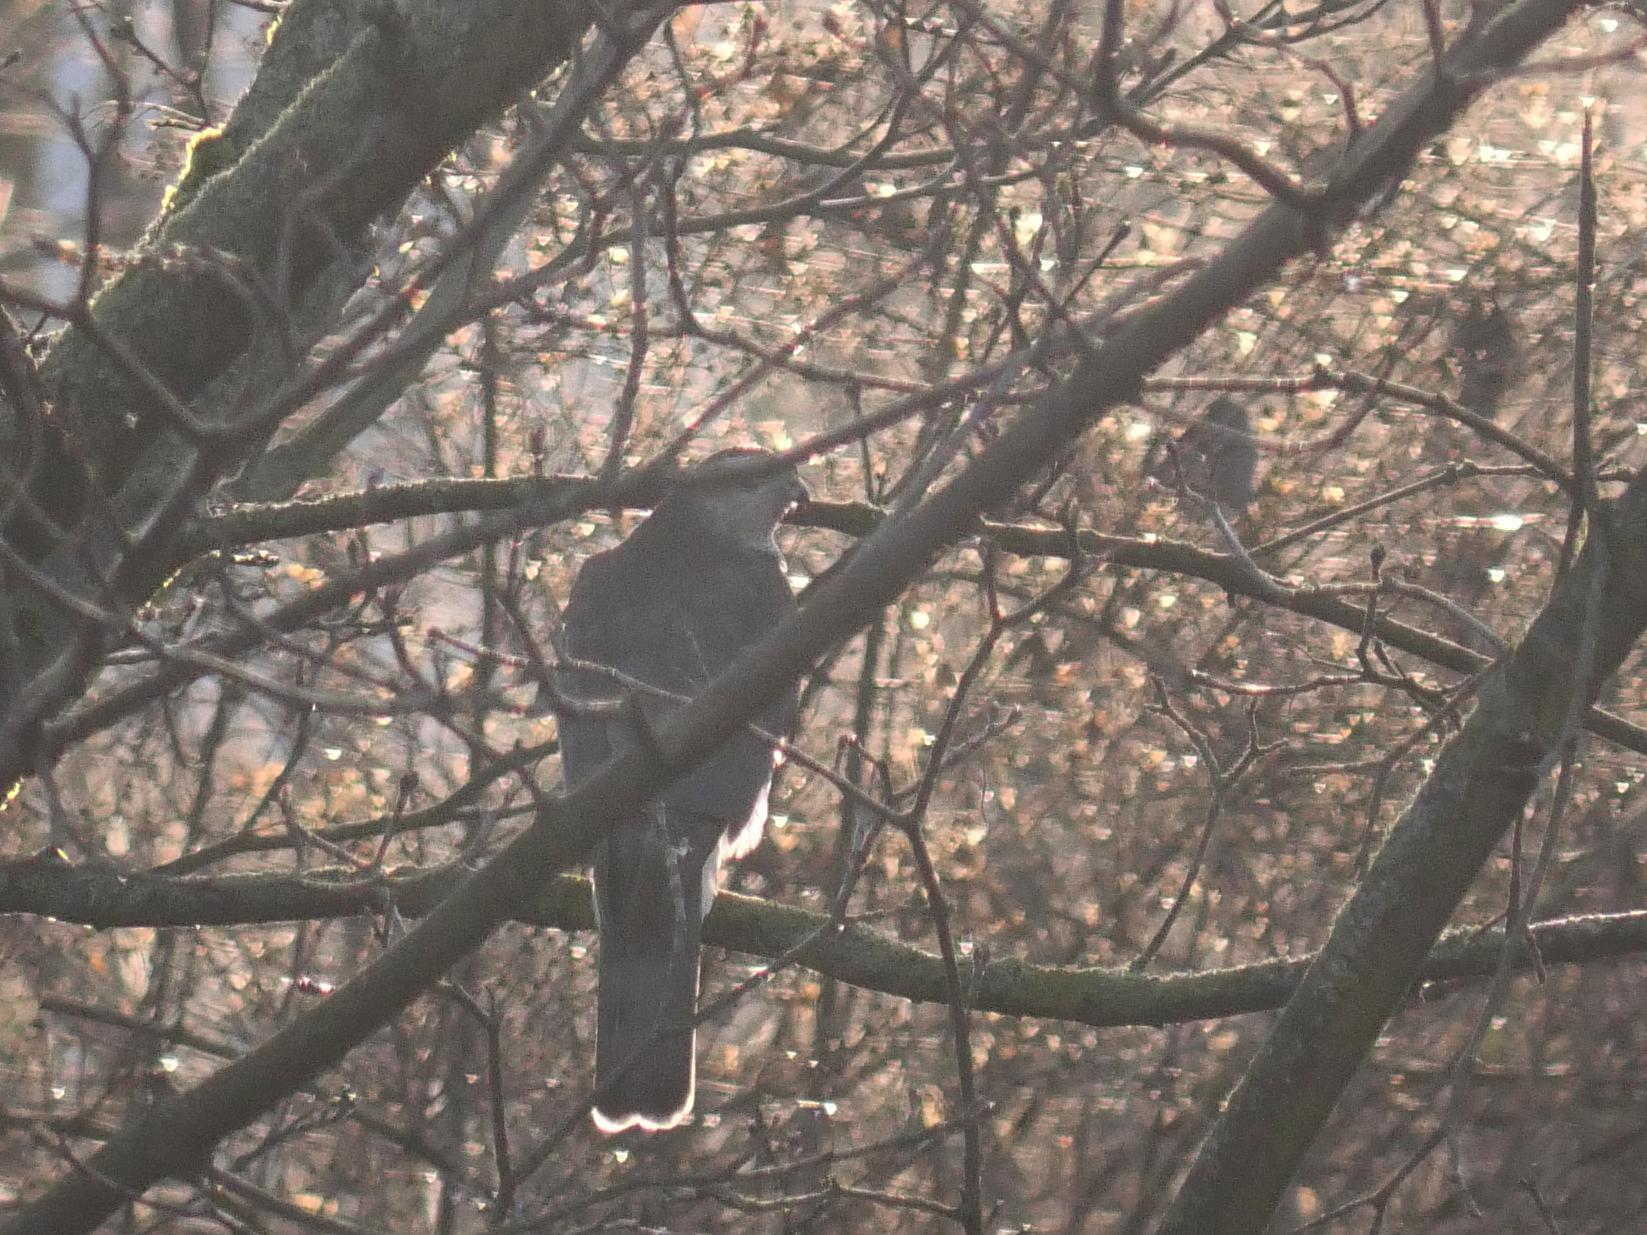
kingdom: Animalia
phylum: Chordata
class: Aves
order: Accipitriformes
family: Accipitridae
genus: Accipiter
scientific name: Accipiter nisus
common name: Eurasian sparrowhawk
